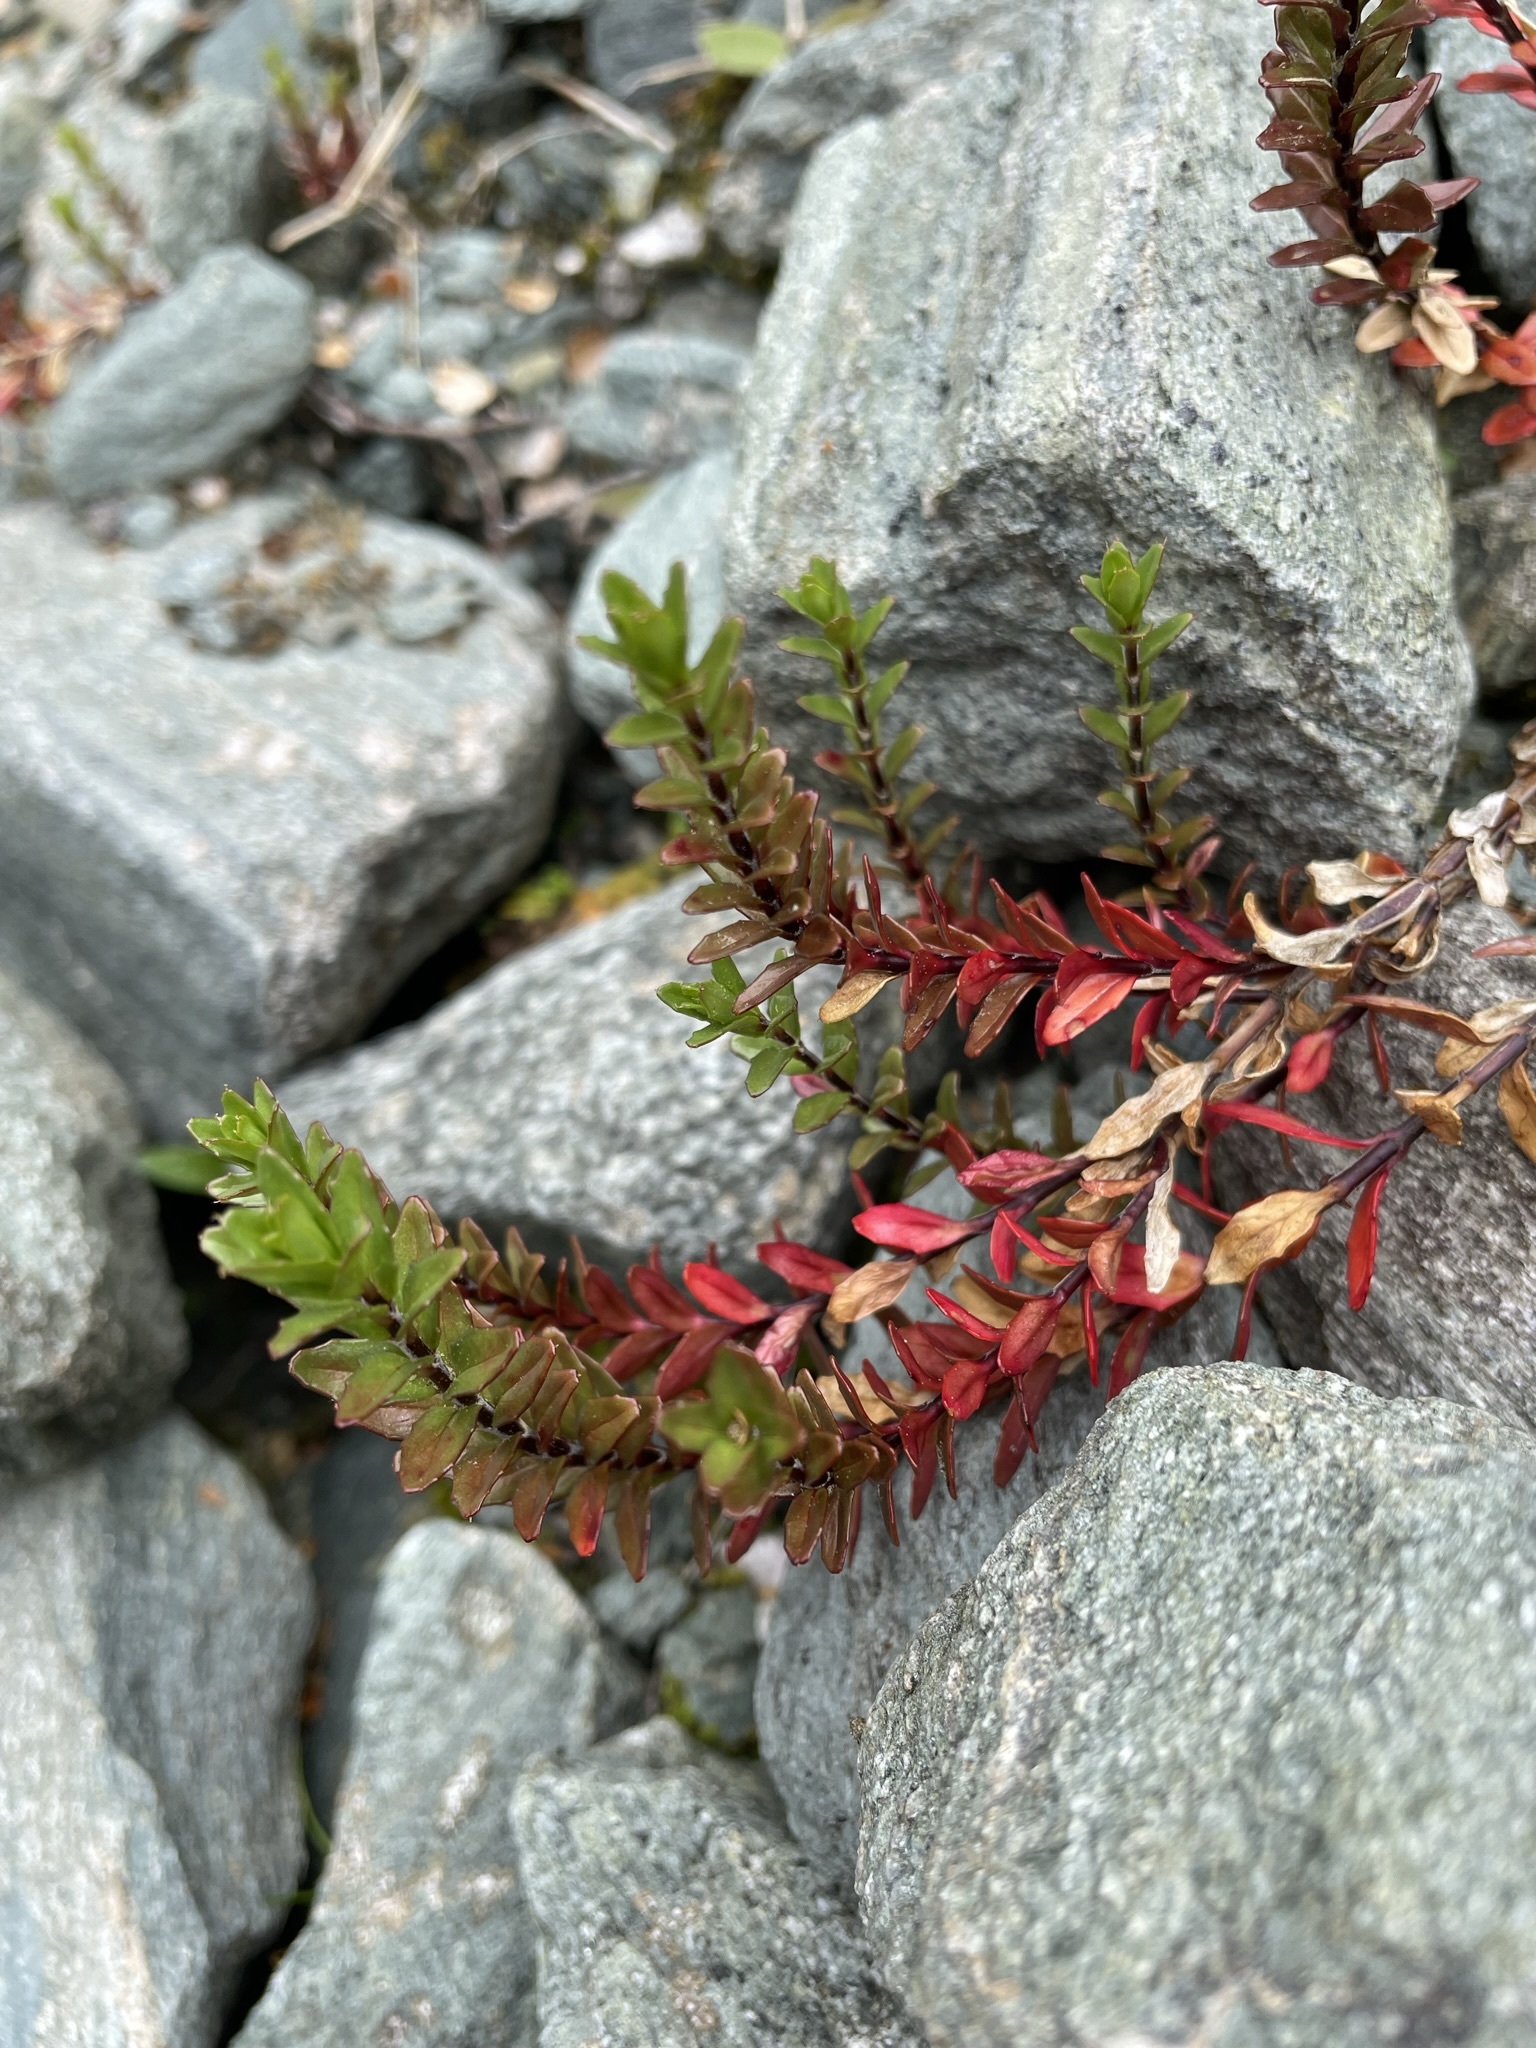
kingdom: Plantae
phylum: Tracheophyta
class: Magnoliopsida
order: Myrtales
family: Onagraceae
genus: Epilobium
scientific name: Epilobium glabellum
